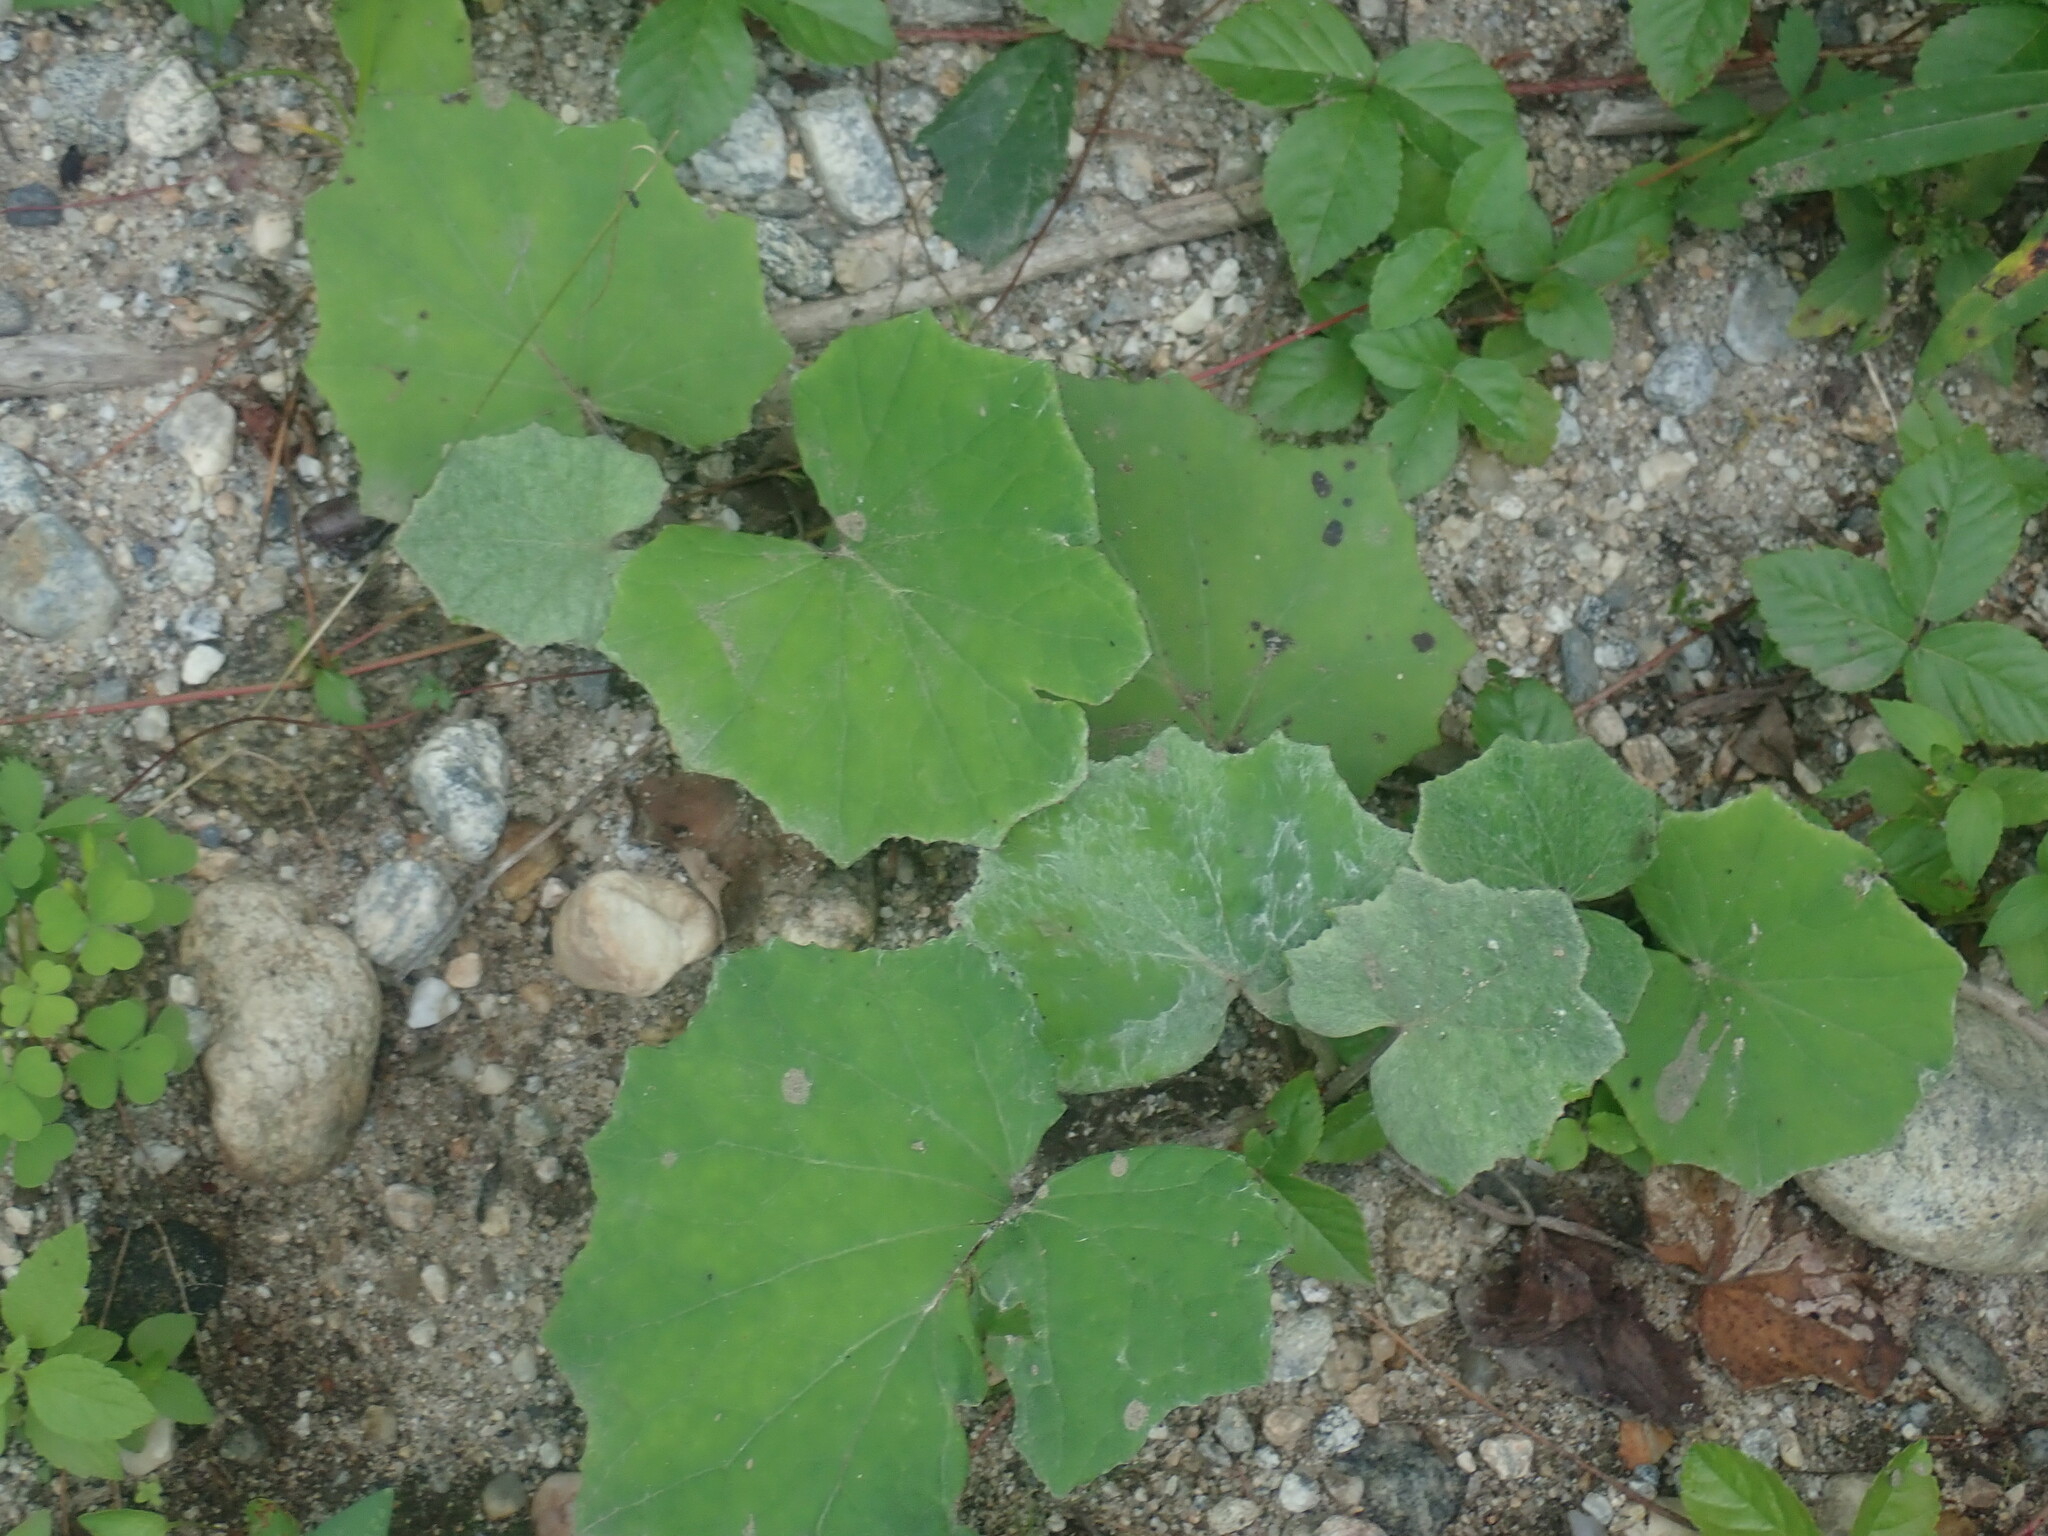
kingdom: Plantae
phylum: Tracheophyta
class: Magnoliopsida
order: Asterales
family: Asteraceae
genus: Tussilago
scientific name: Tussilago farfara
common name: Coltsfoot
